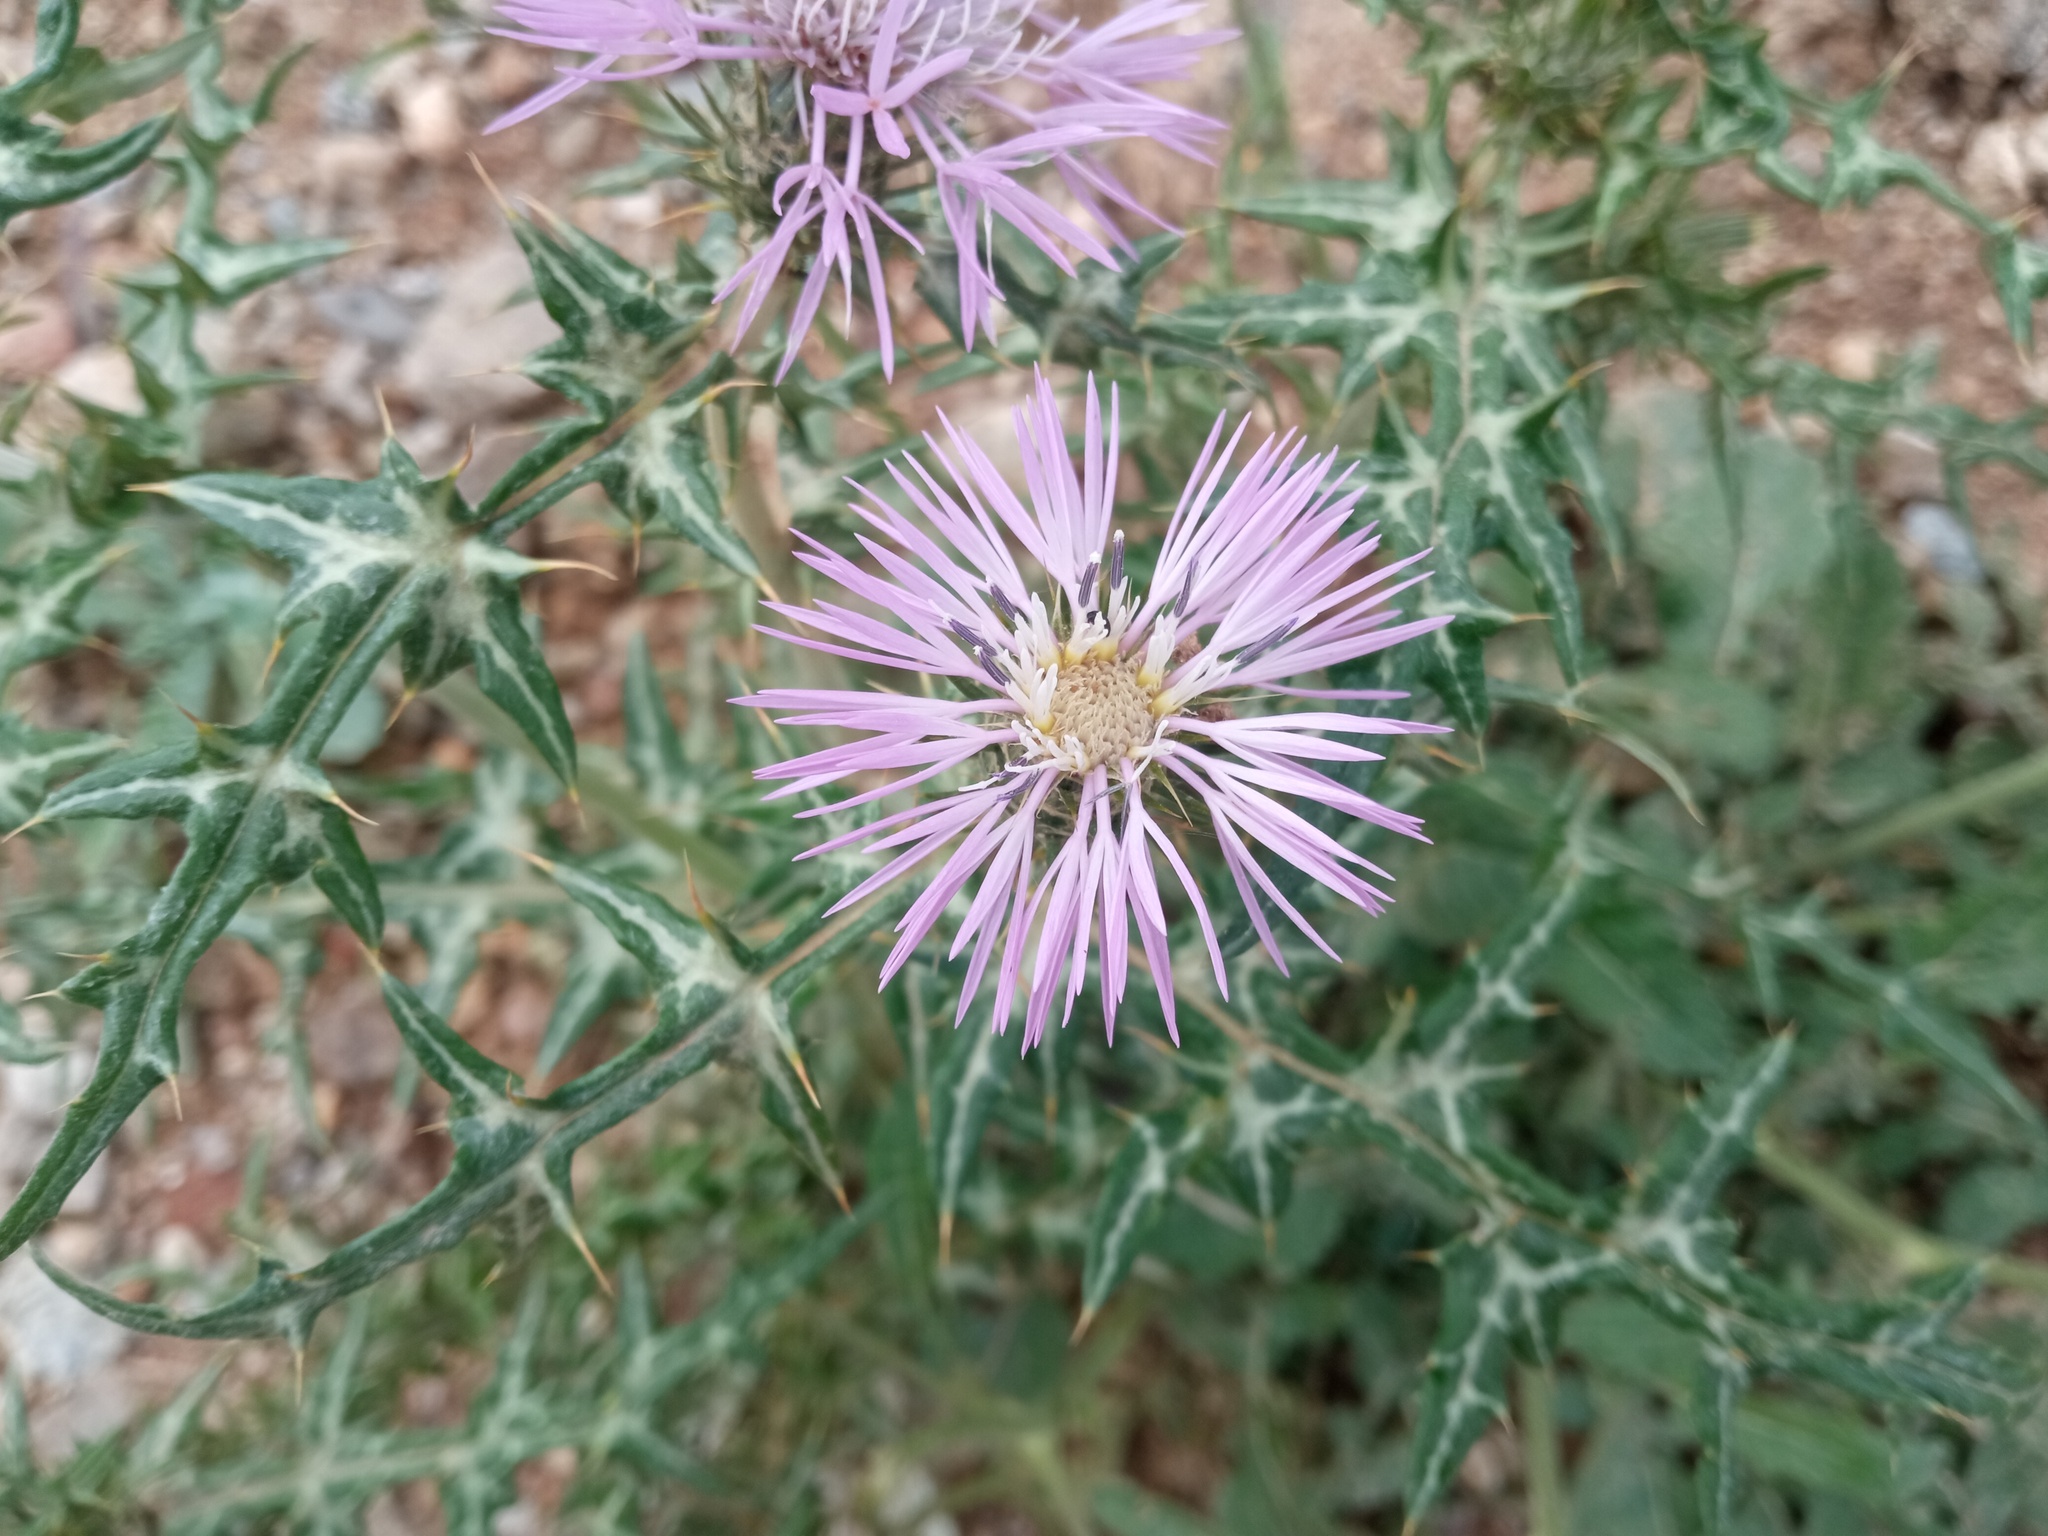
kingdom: Plantae
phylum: Tracheophyta
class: Magnoliopsida
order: Asterales
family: Asteraceae
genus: Galactites
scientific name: Galactites tomentosa
